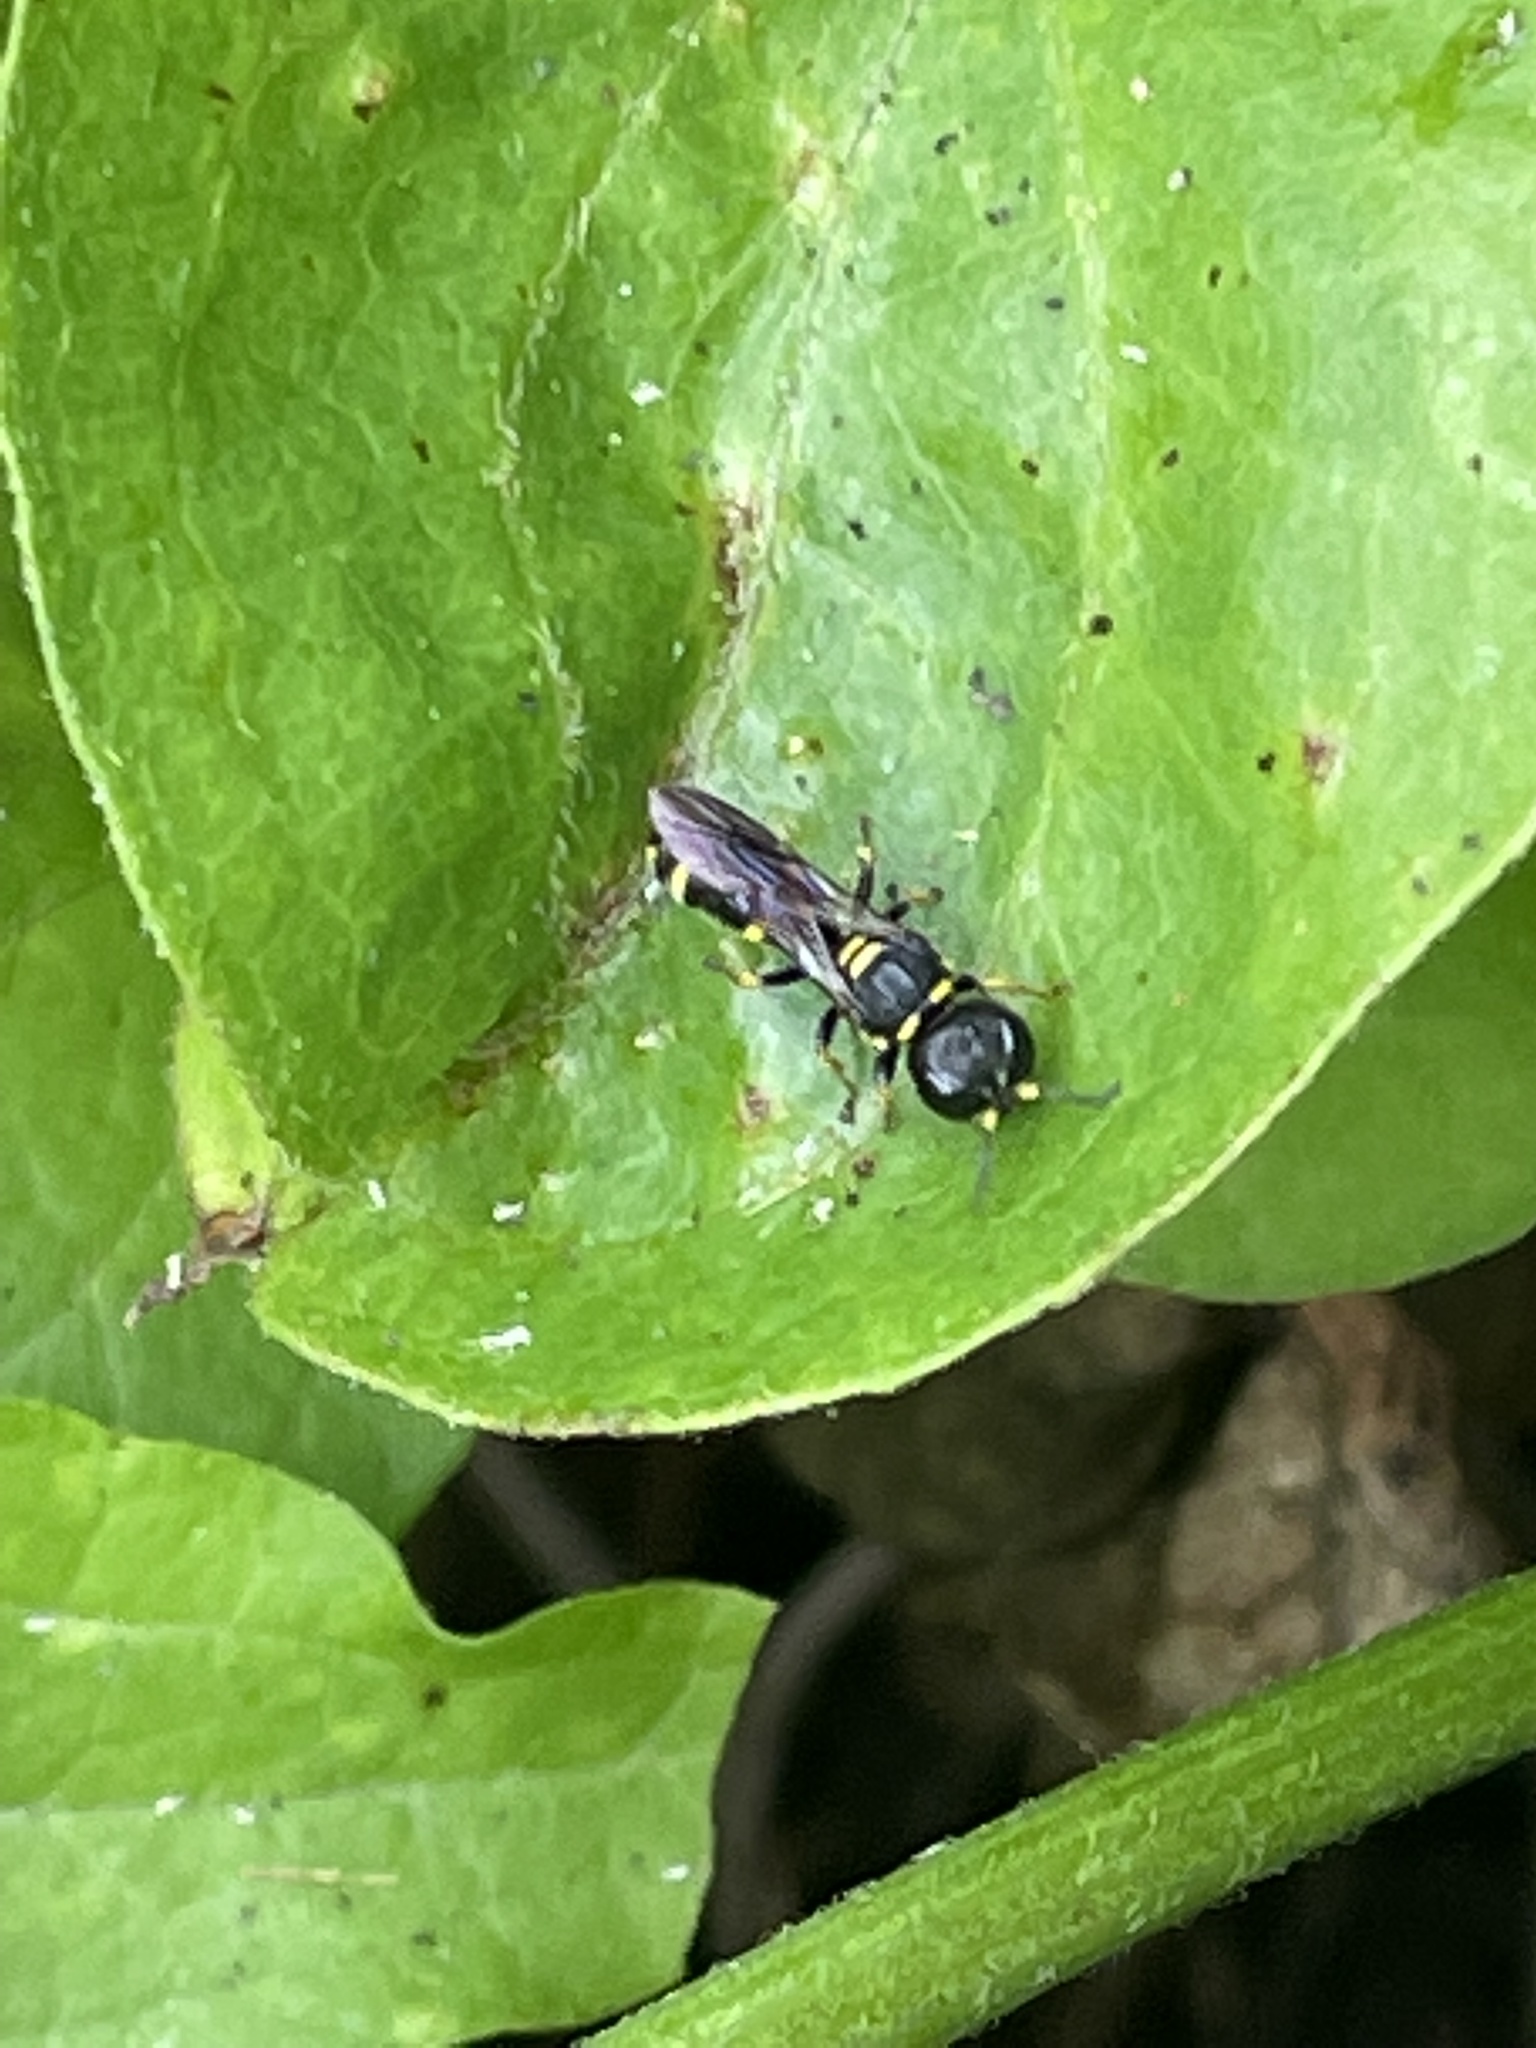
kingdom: Animalia
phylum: Arthropoda
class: Insecta
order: Hymenoptera
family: Crabronidae
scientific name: Crabronidae
